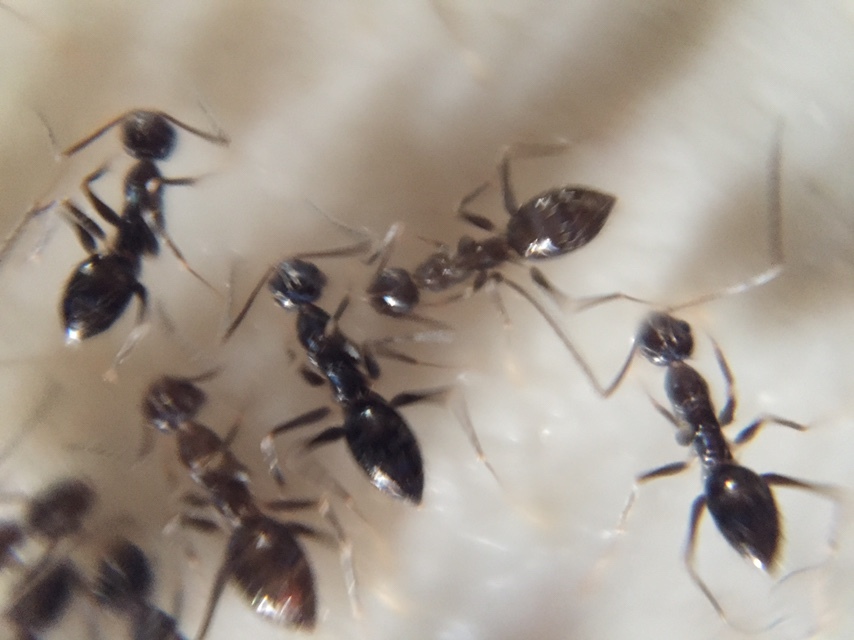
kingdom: Animalia
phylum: Arthropoda
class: Insecta
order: Hymenoptera
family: Formicidae
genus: Paratrechina
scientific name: Paratrechina longicornis
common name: Longhorned crazy ant
